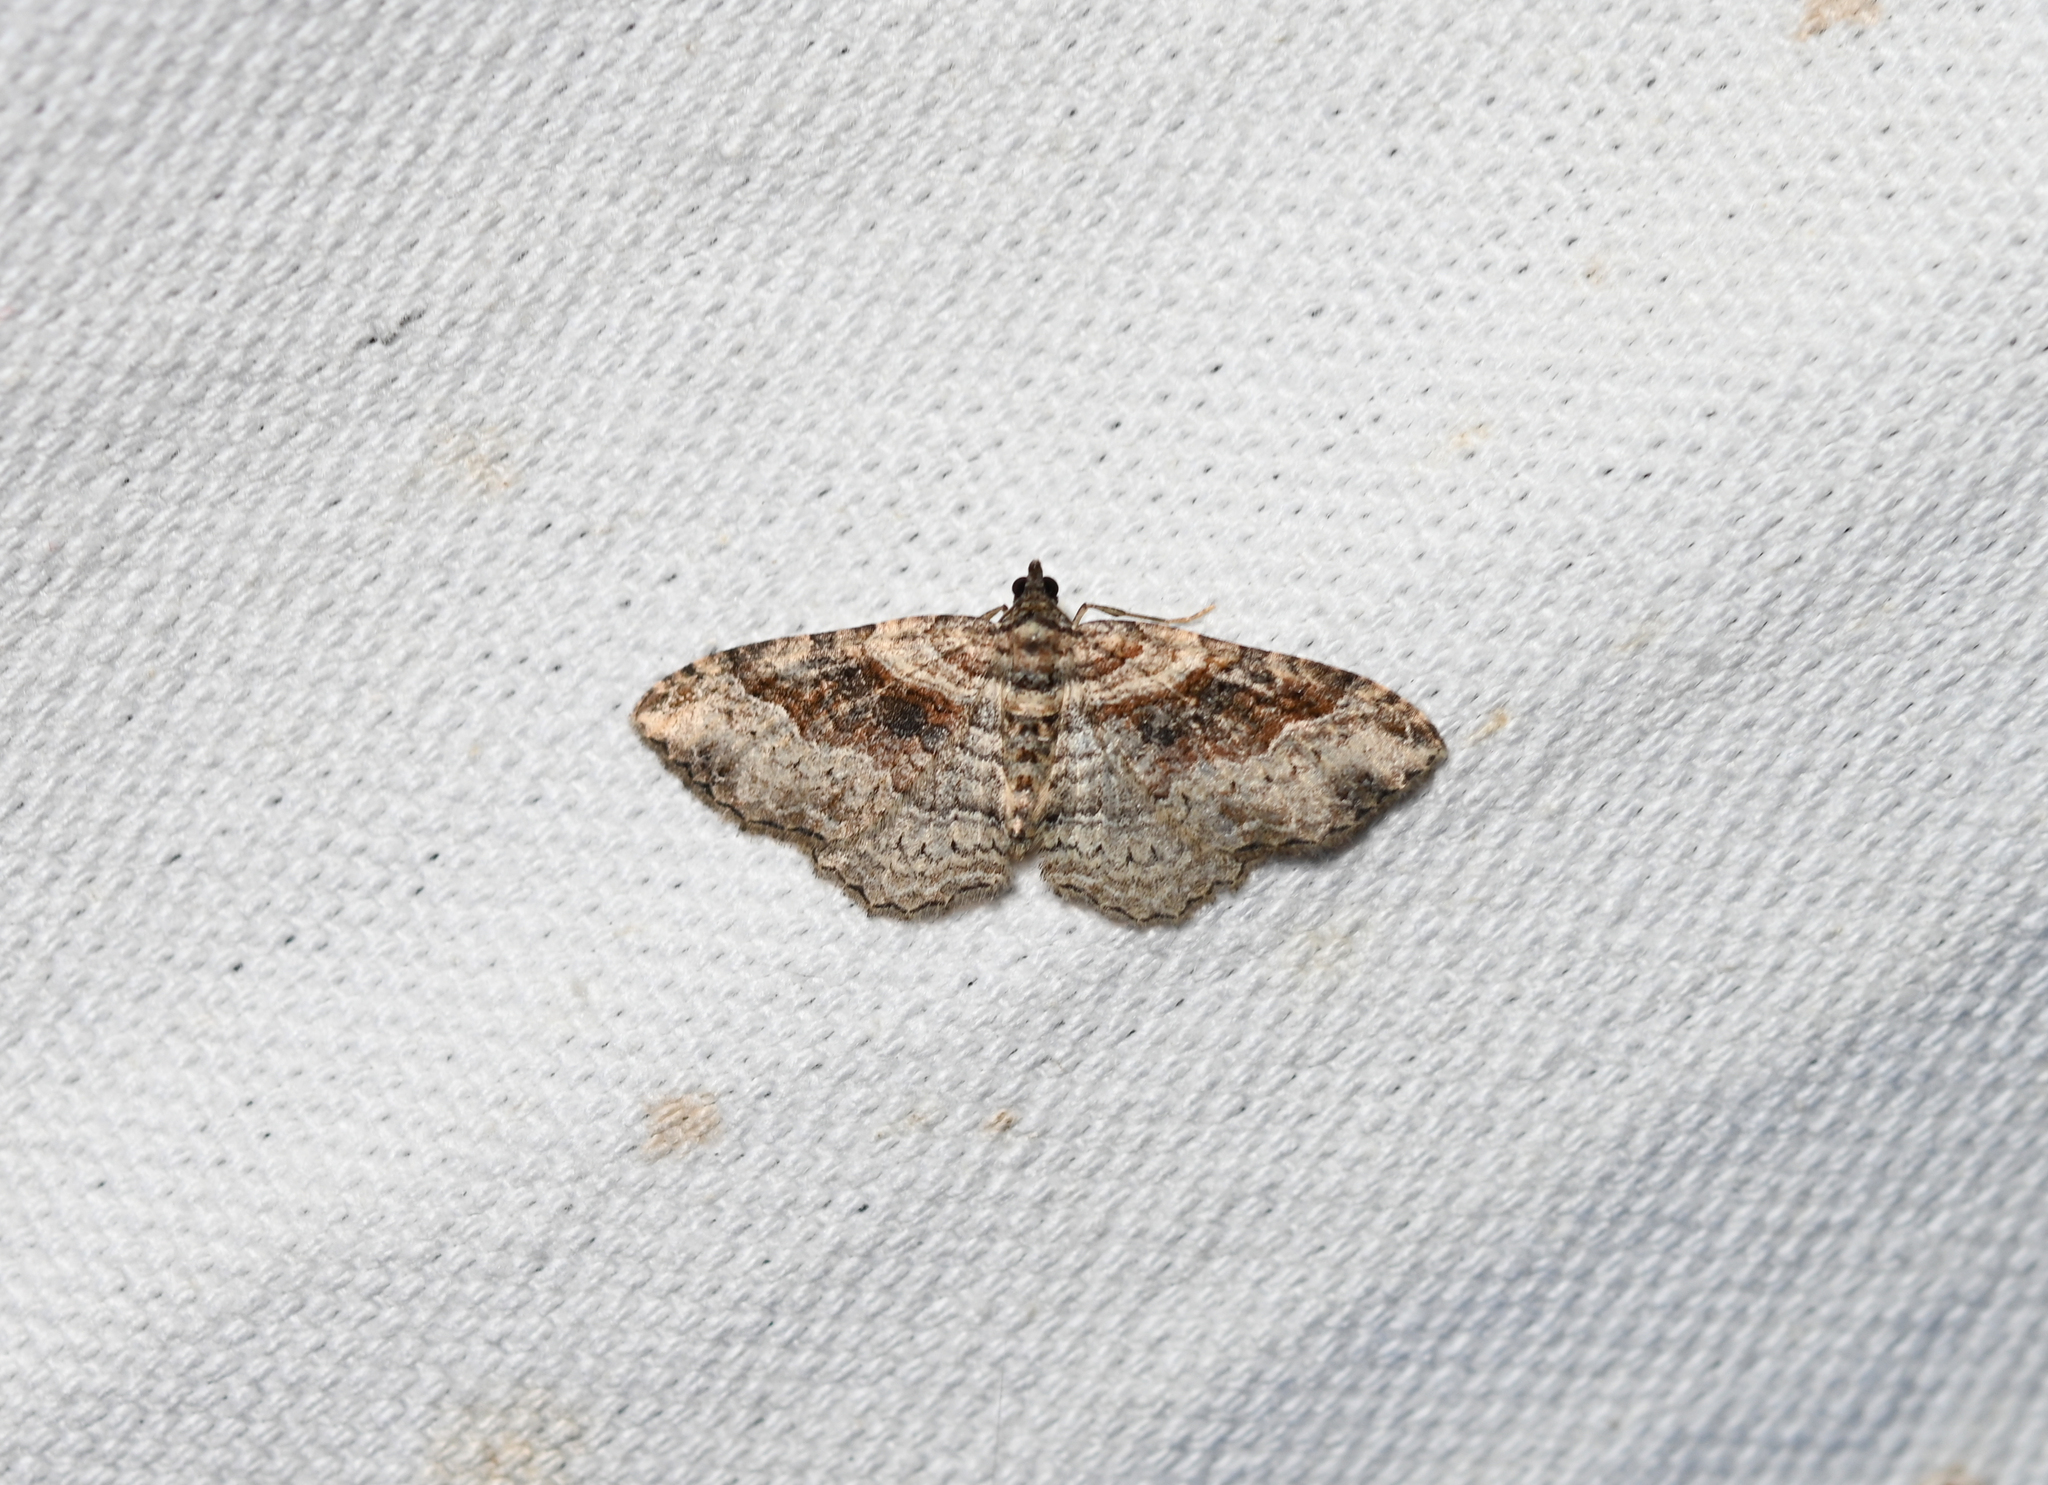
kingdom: Animalia
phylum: Arthropoda
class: Insecta
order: Lepidoptera
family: Geometridae
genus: Costaconvexa
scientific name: Costaconvexa centrostrigaria
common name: Bent-line carpet
